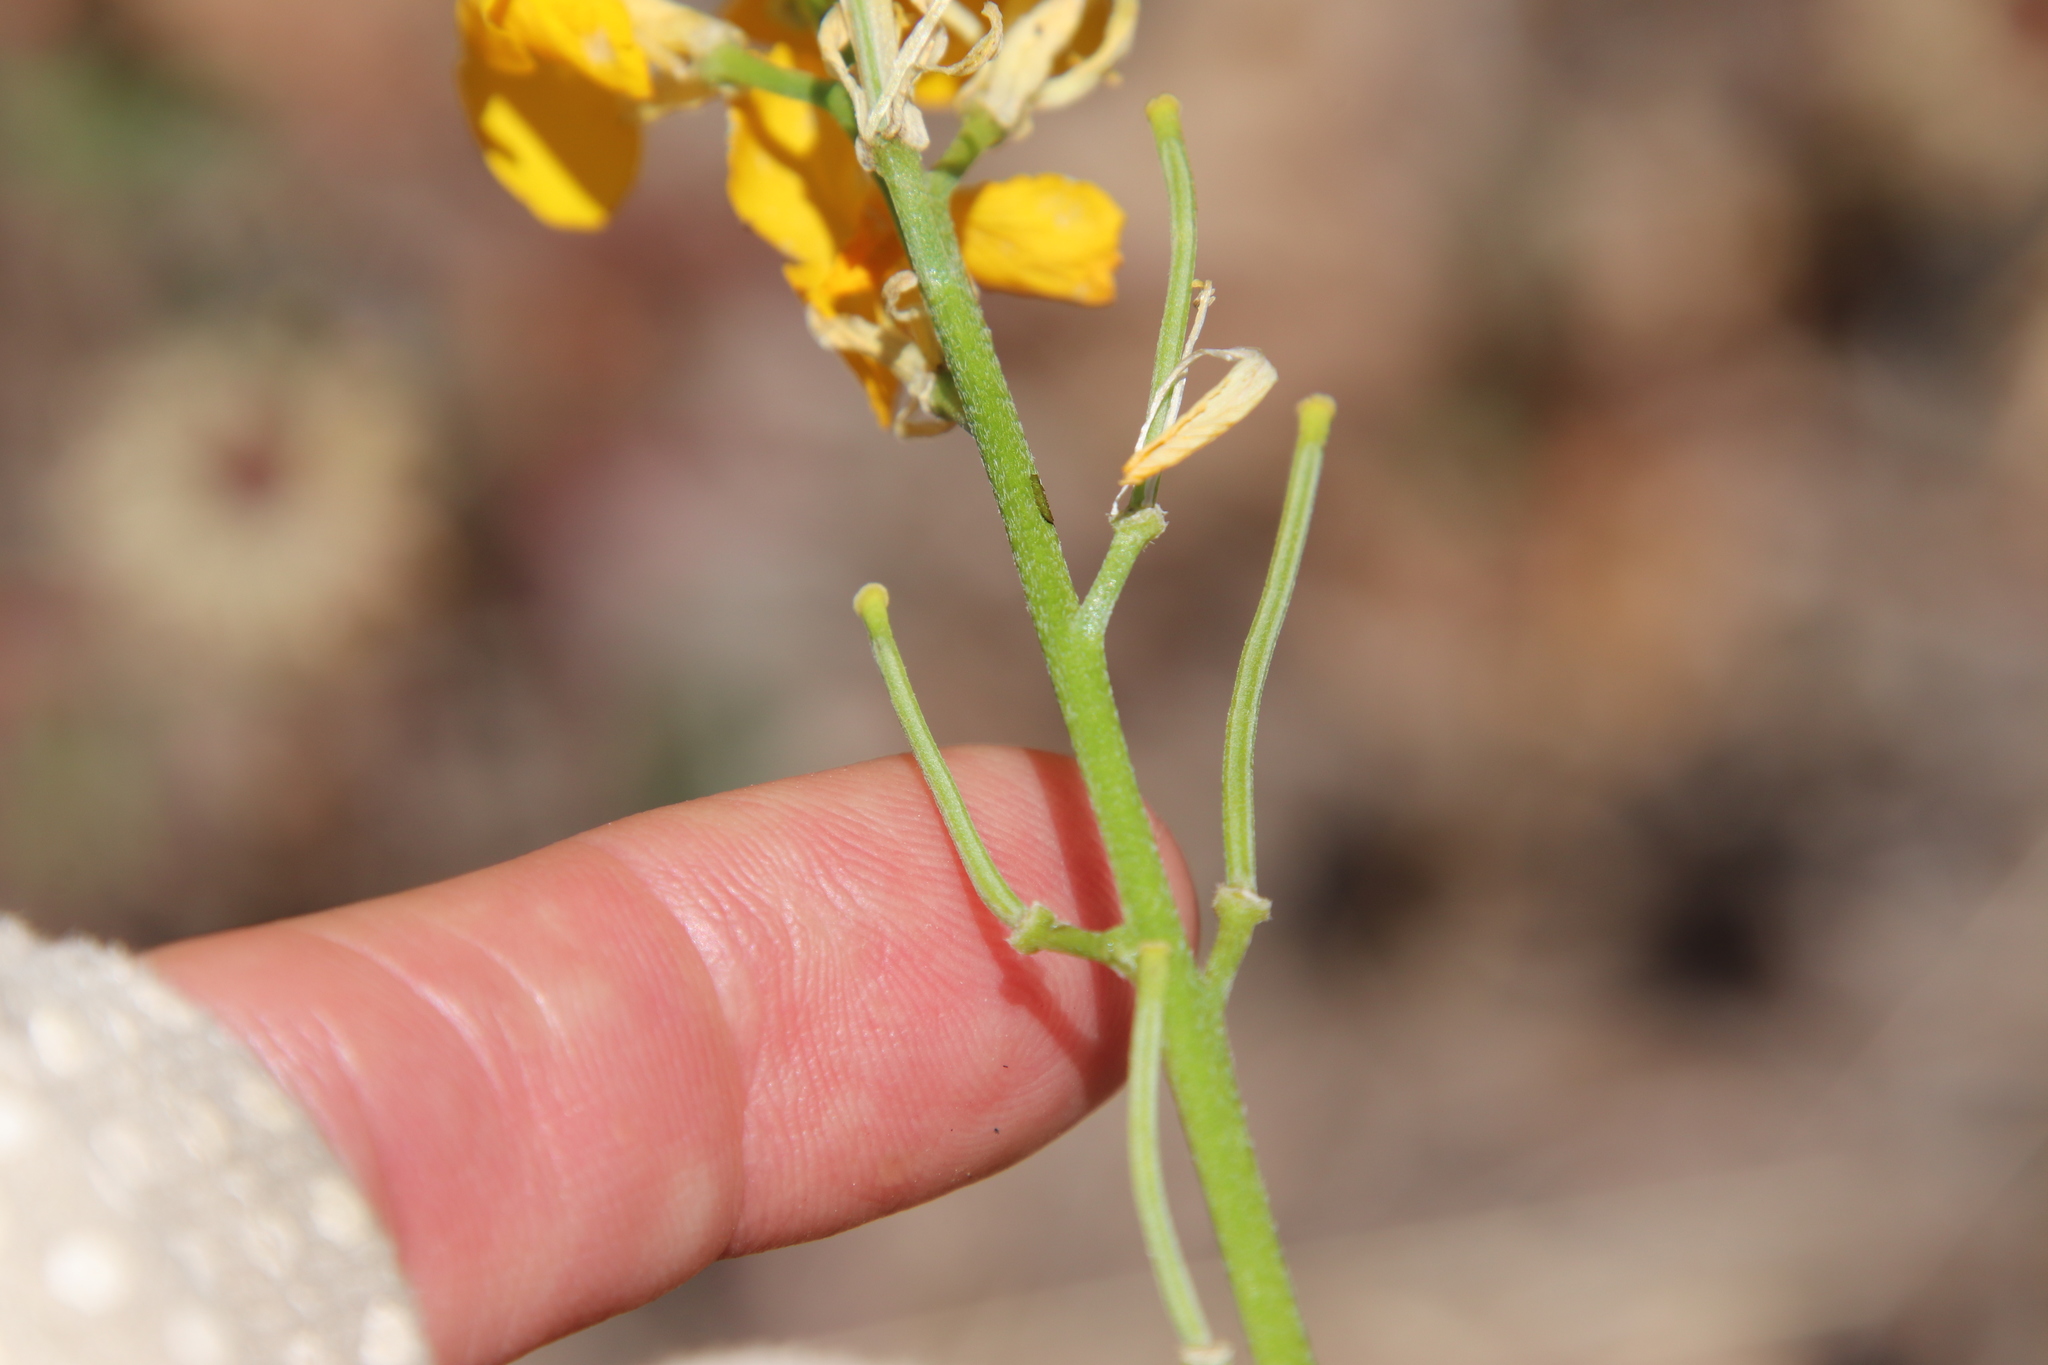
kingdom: Plantae
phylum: Tracheophyta
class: Magnoliopsida
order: Brassicales
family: Brassicaceae
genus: Erysimum
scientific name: Erysimum capitatum
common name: Western wallflower
